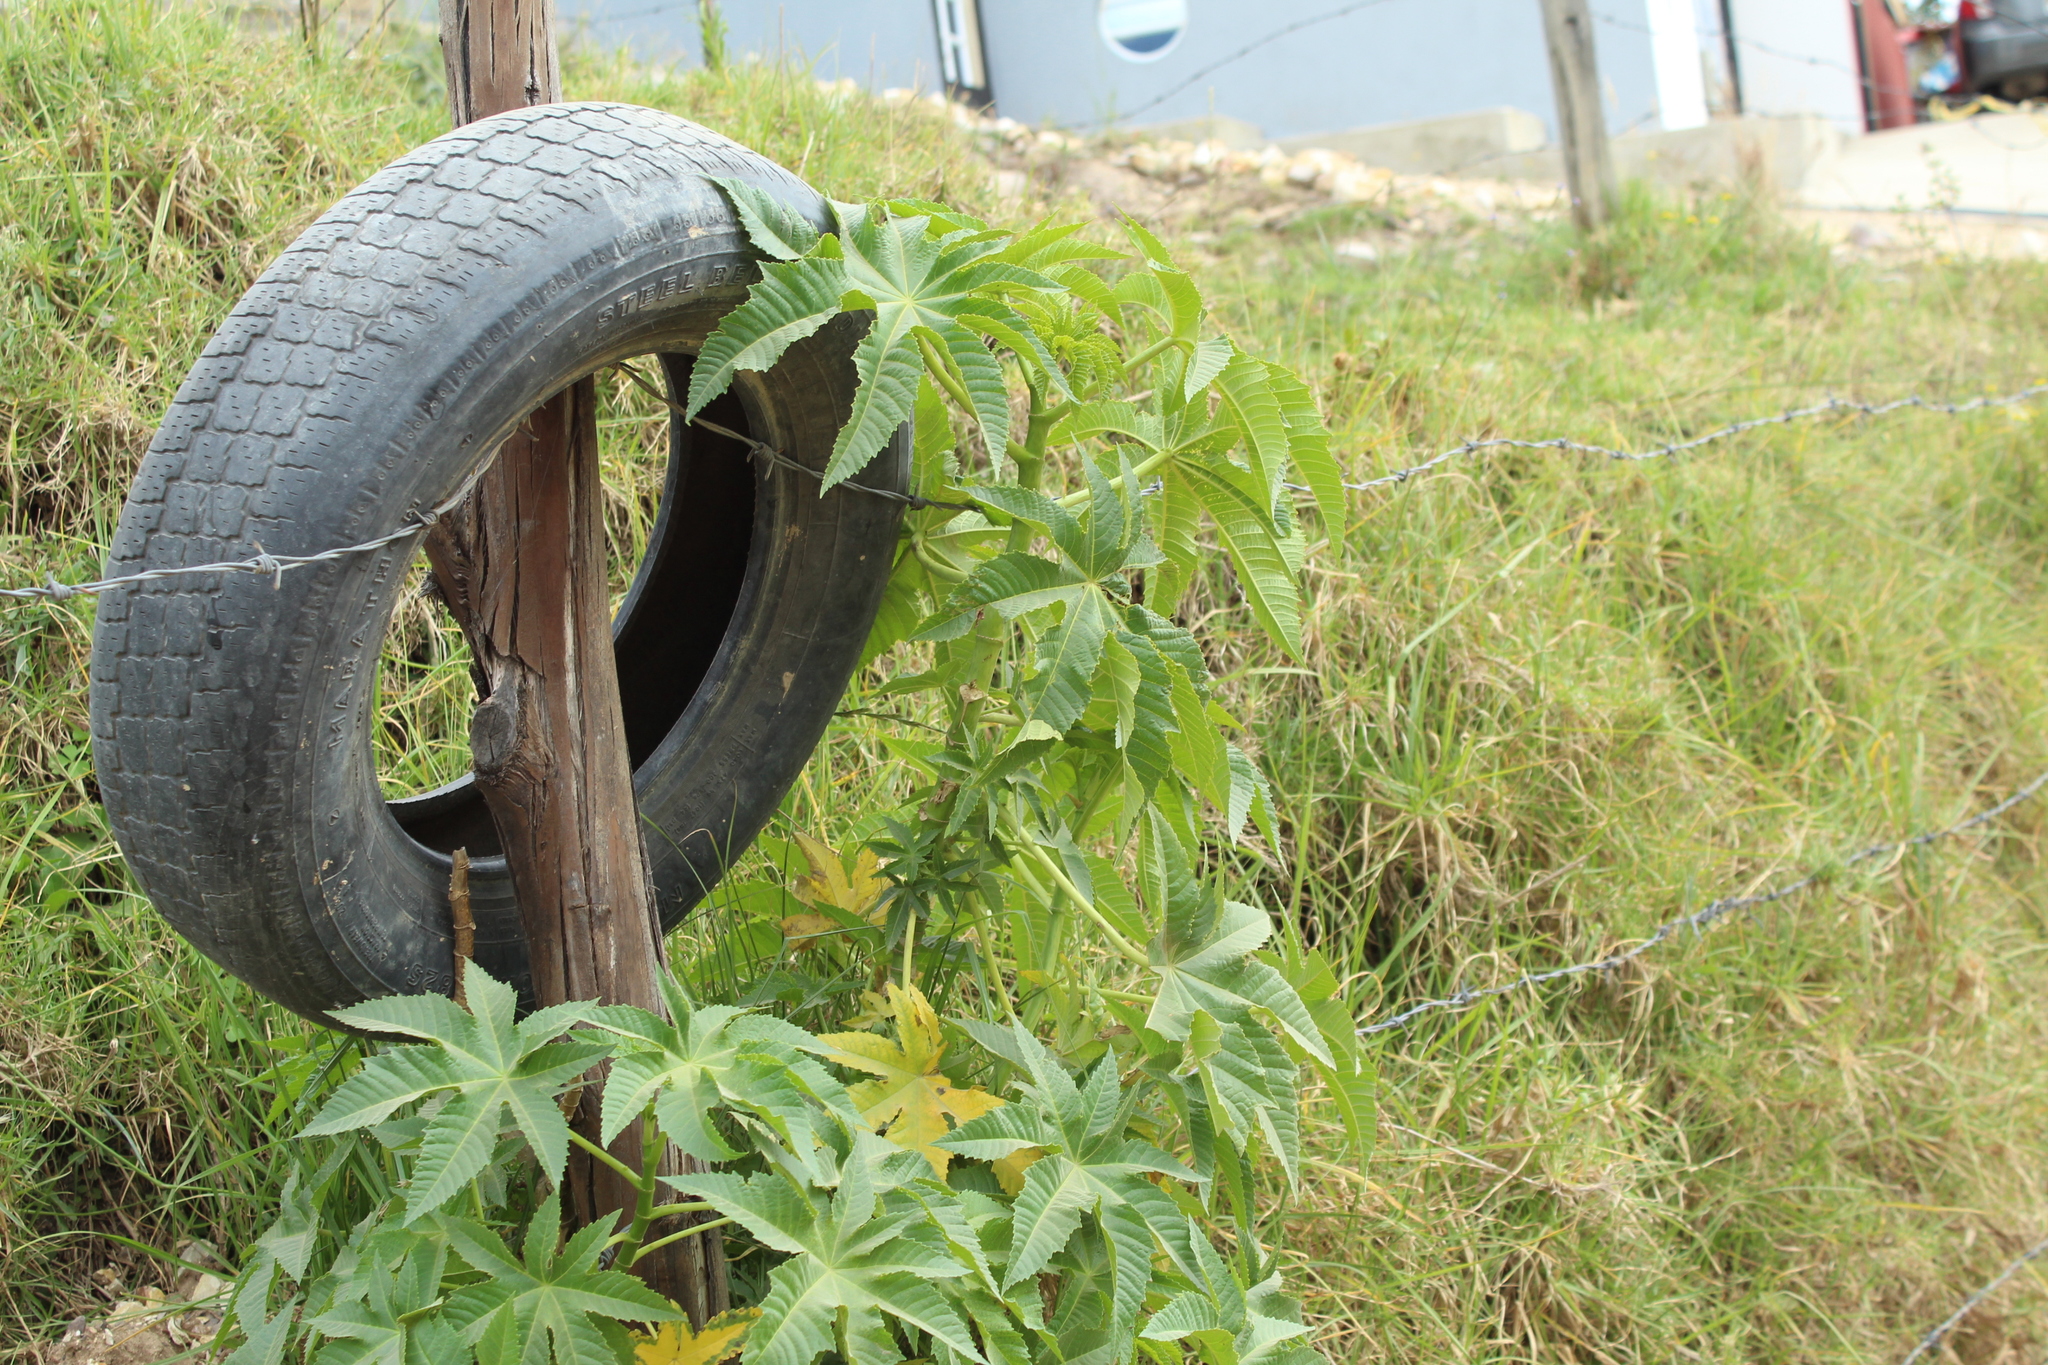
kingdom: Plantae
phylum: Tracheophyta
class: Magnoliopsida
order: Malpighiales
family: Euphorbiaceae
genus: Ricinus
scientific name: Ricinus communis
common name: Castor-oil-plant
